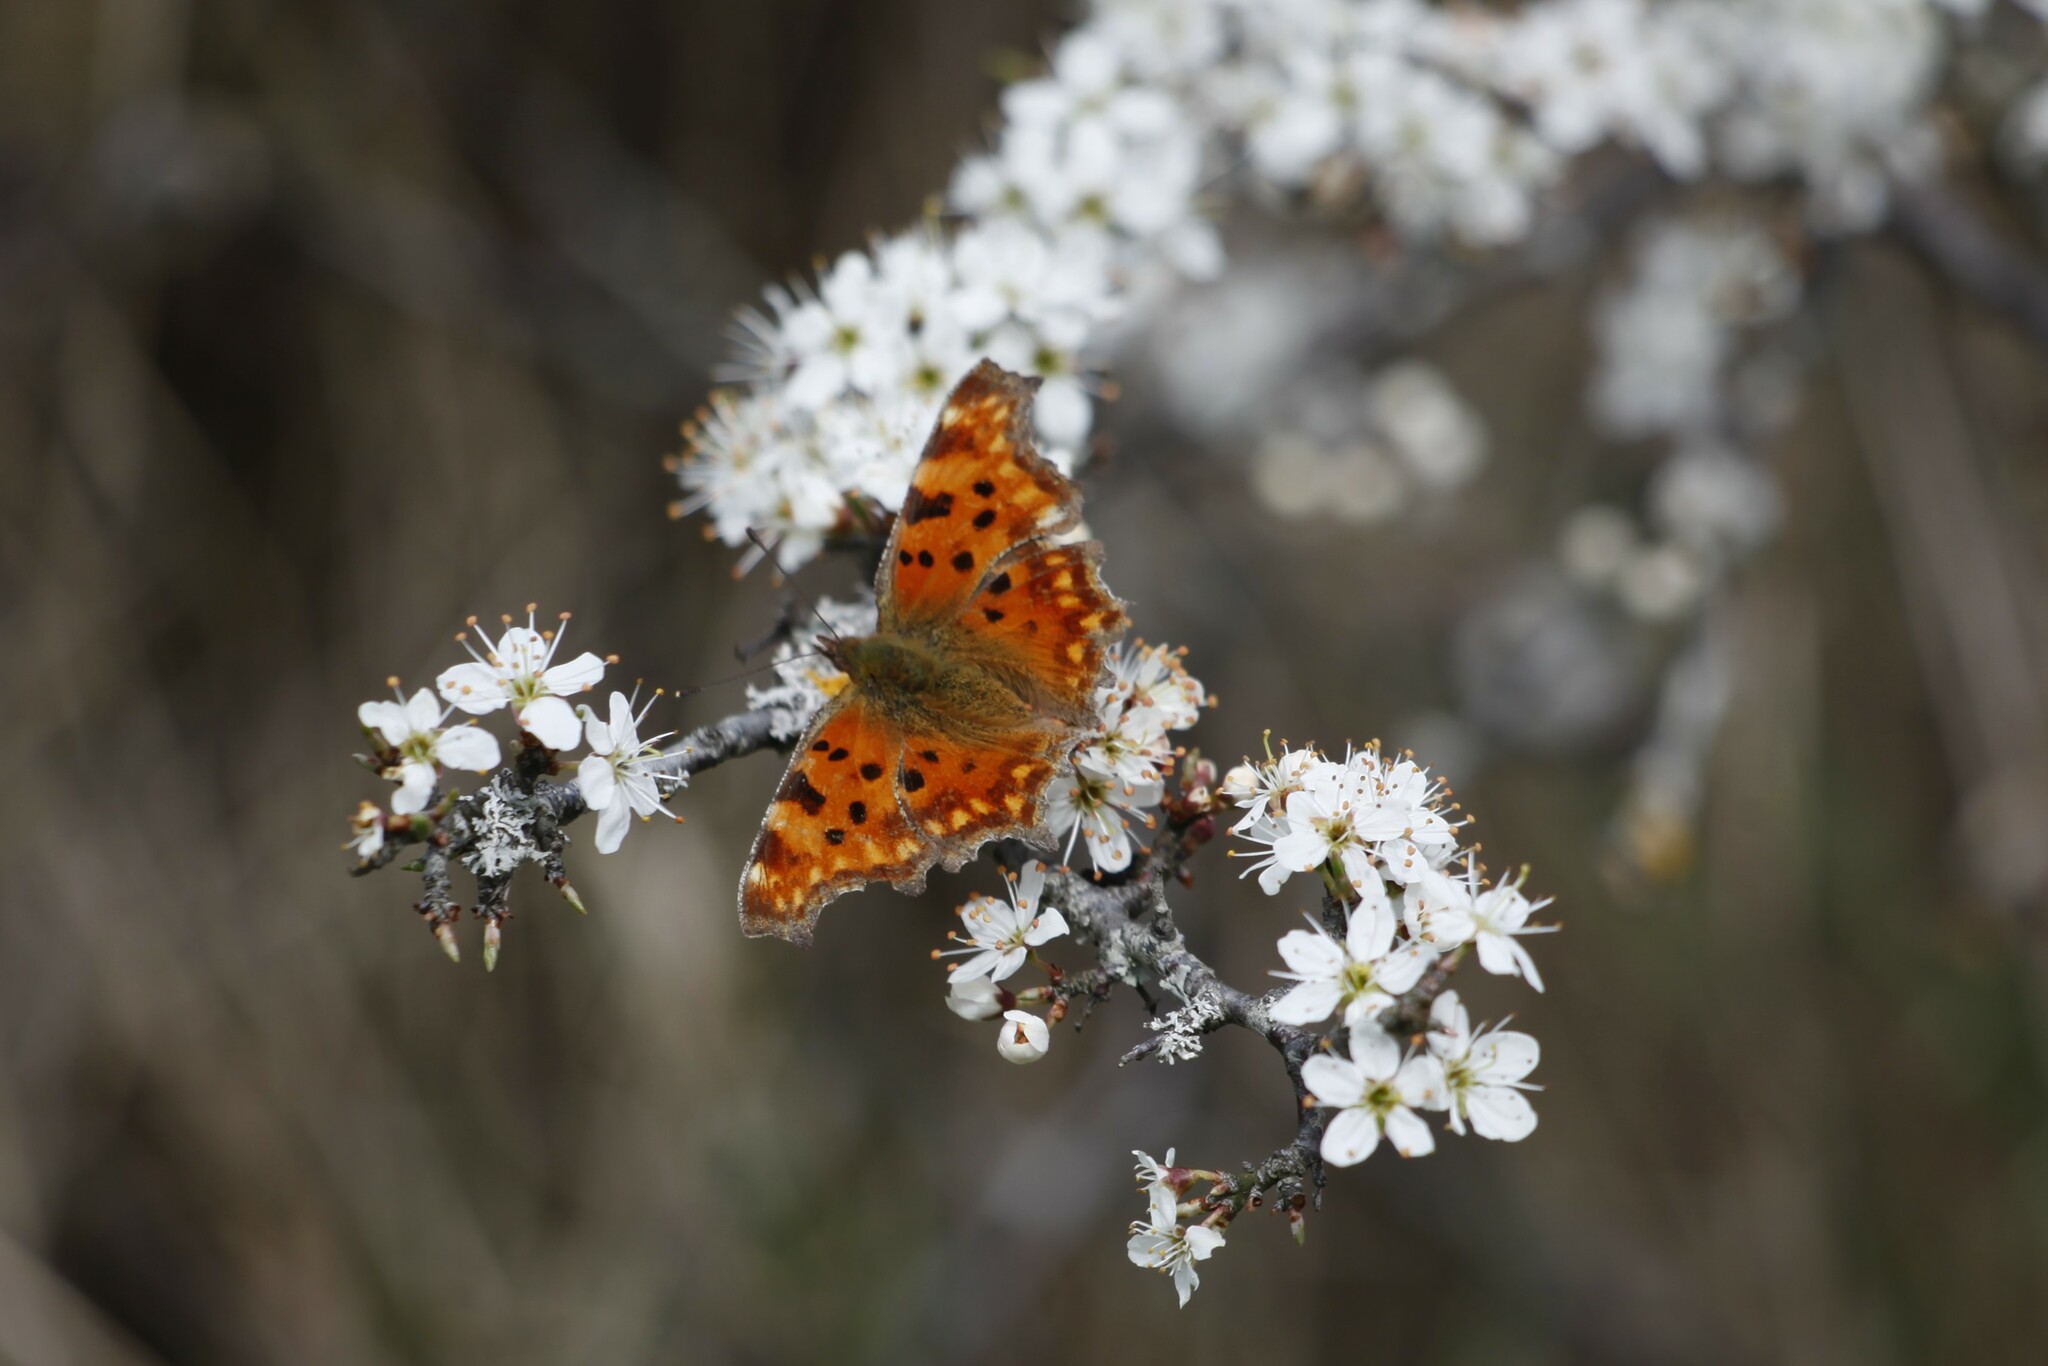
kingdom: Animalia
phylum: Arthropoda
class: Insecta
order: Lepidoptera
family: Nymphalidae
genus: Polygonia
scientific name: Polygonia c-album
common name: Comma
